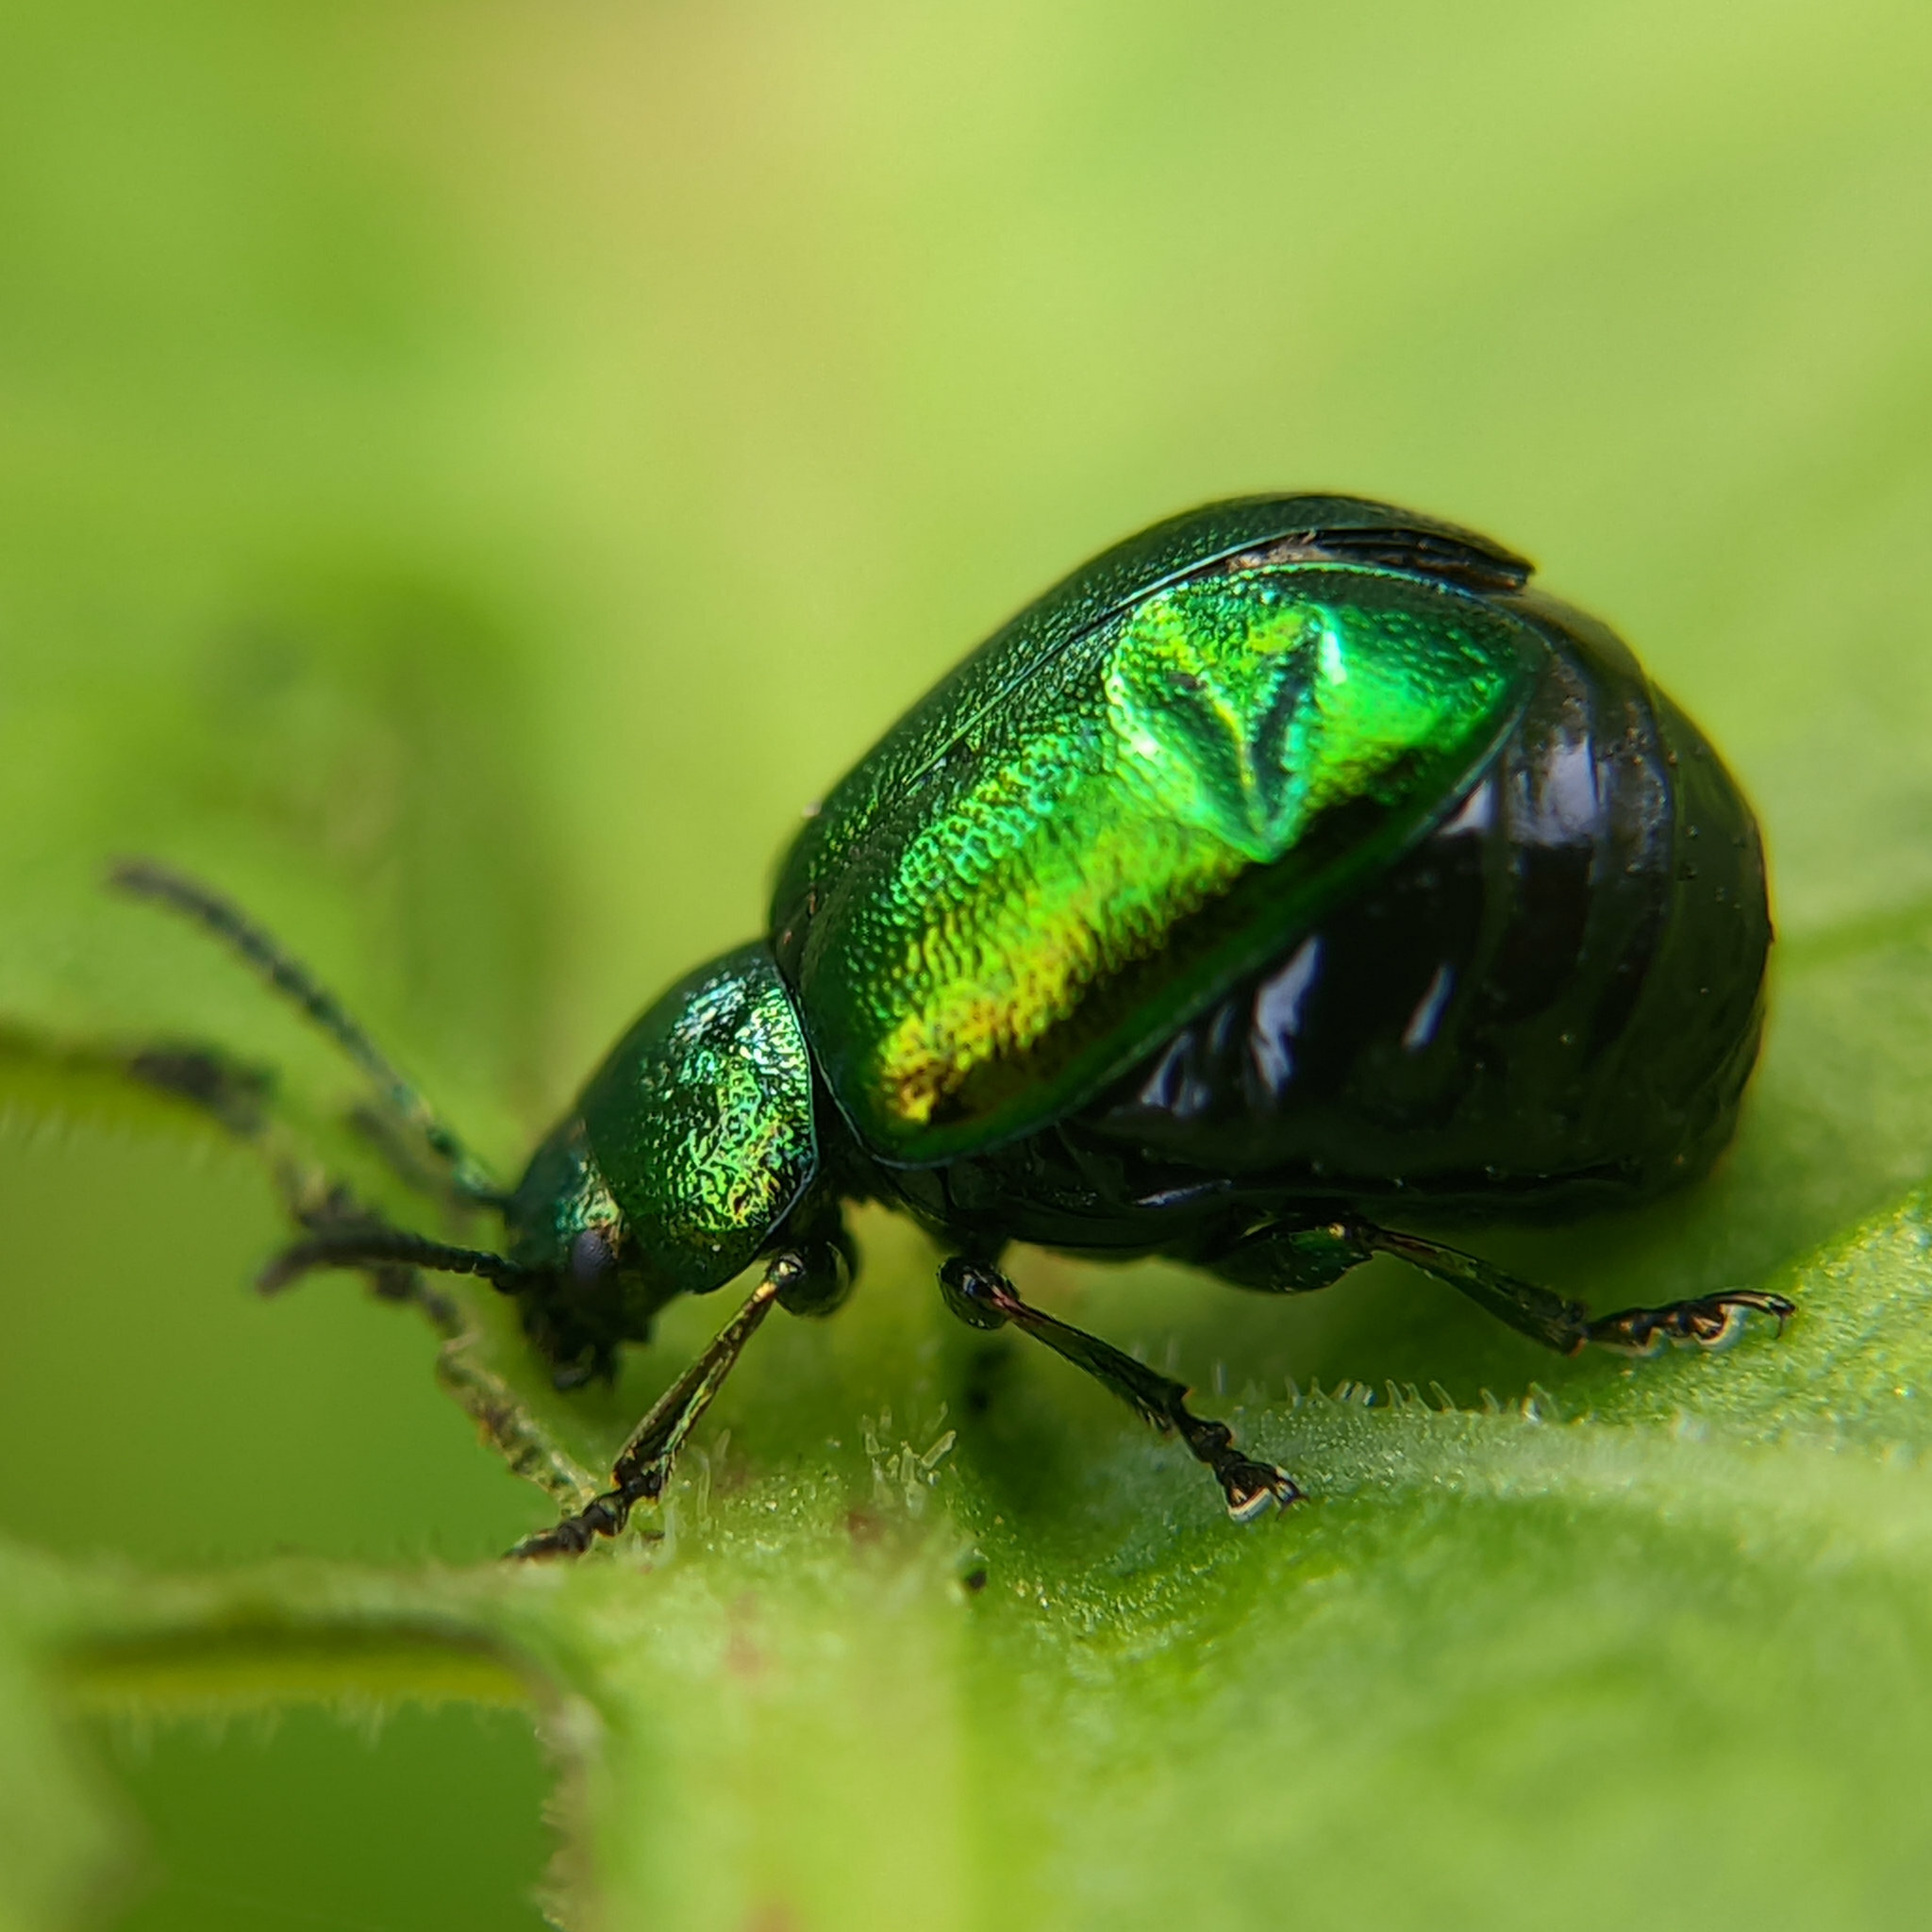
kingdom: Animalia
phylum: Arthropoda
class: Insecta
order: Coleoptera
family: Chrysomelidae
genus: Gastrophysa
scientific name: Gastrophysa viridula
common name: Green dock beetle
